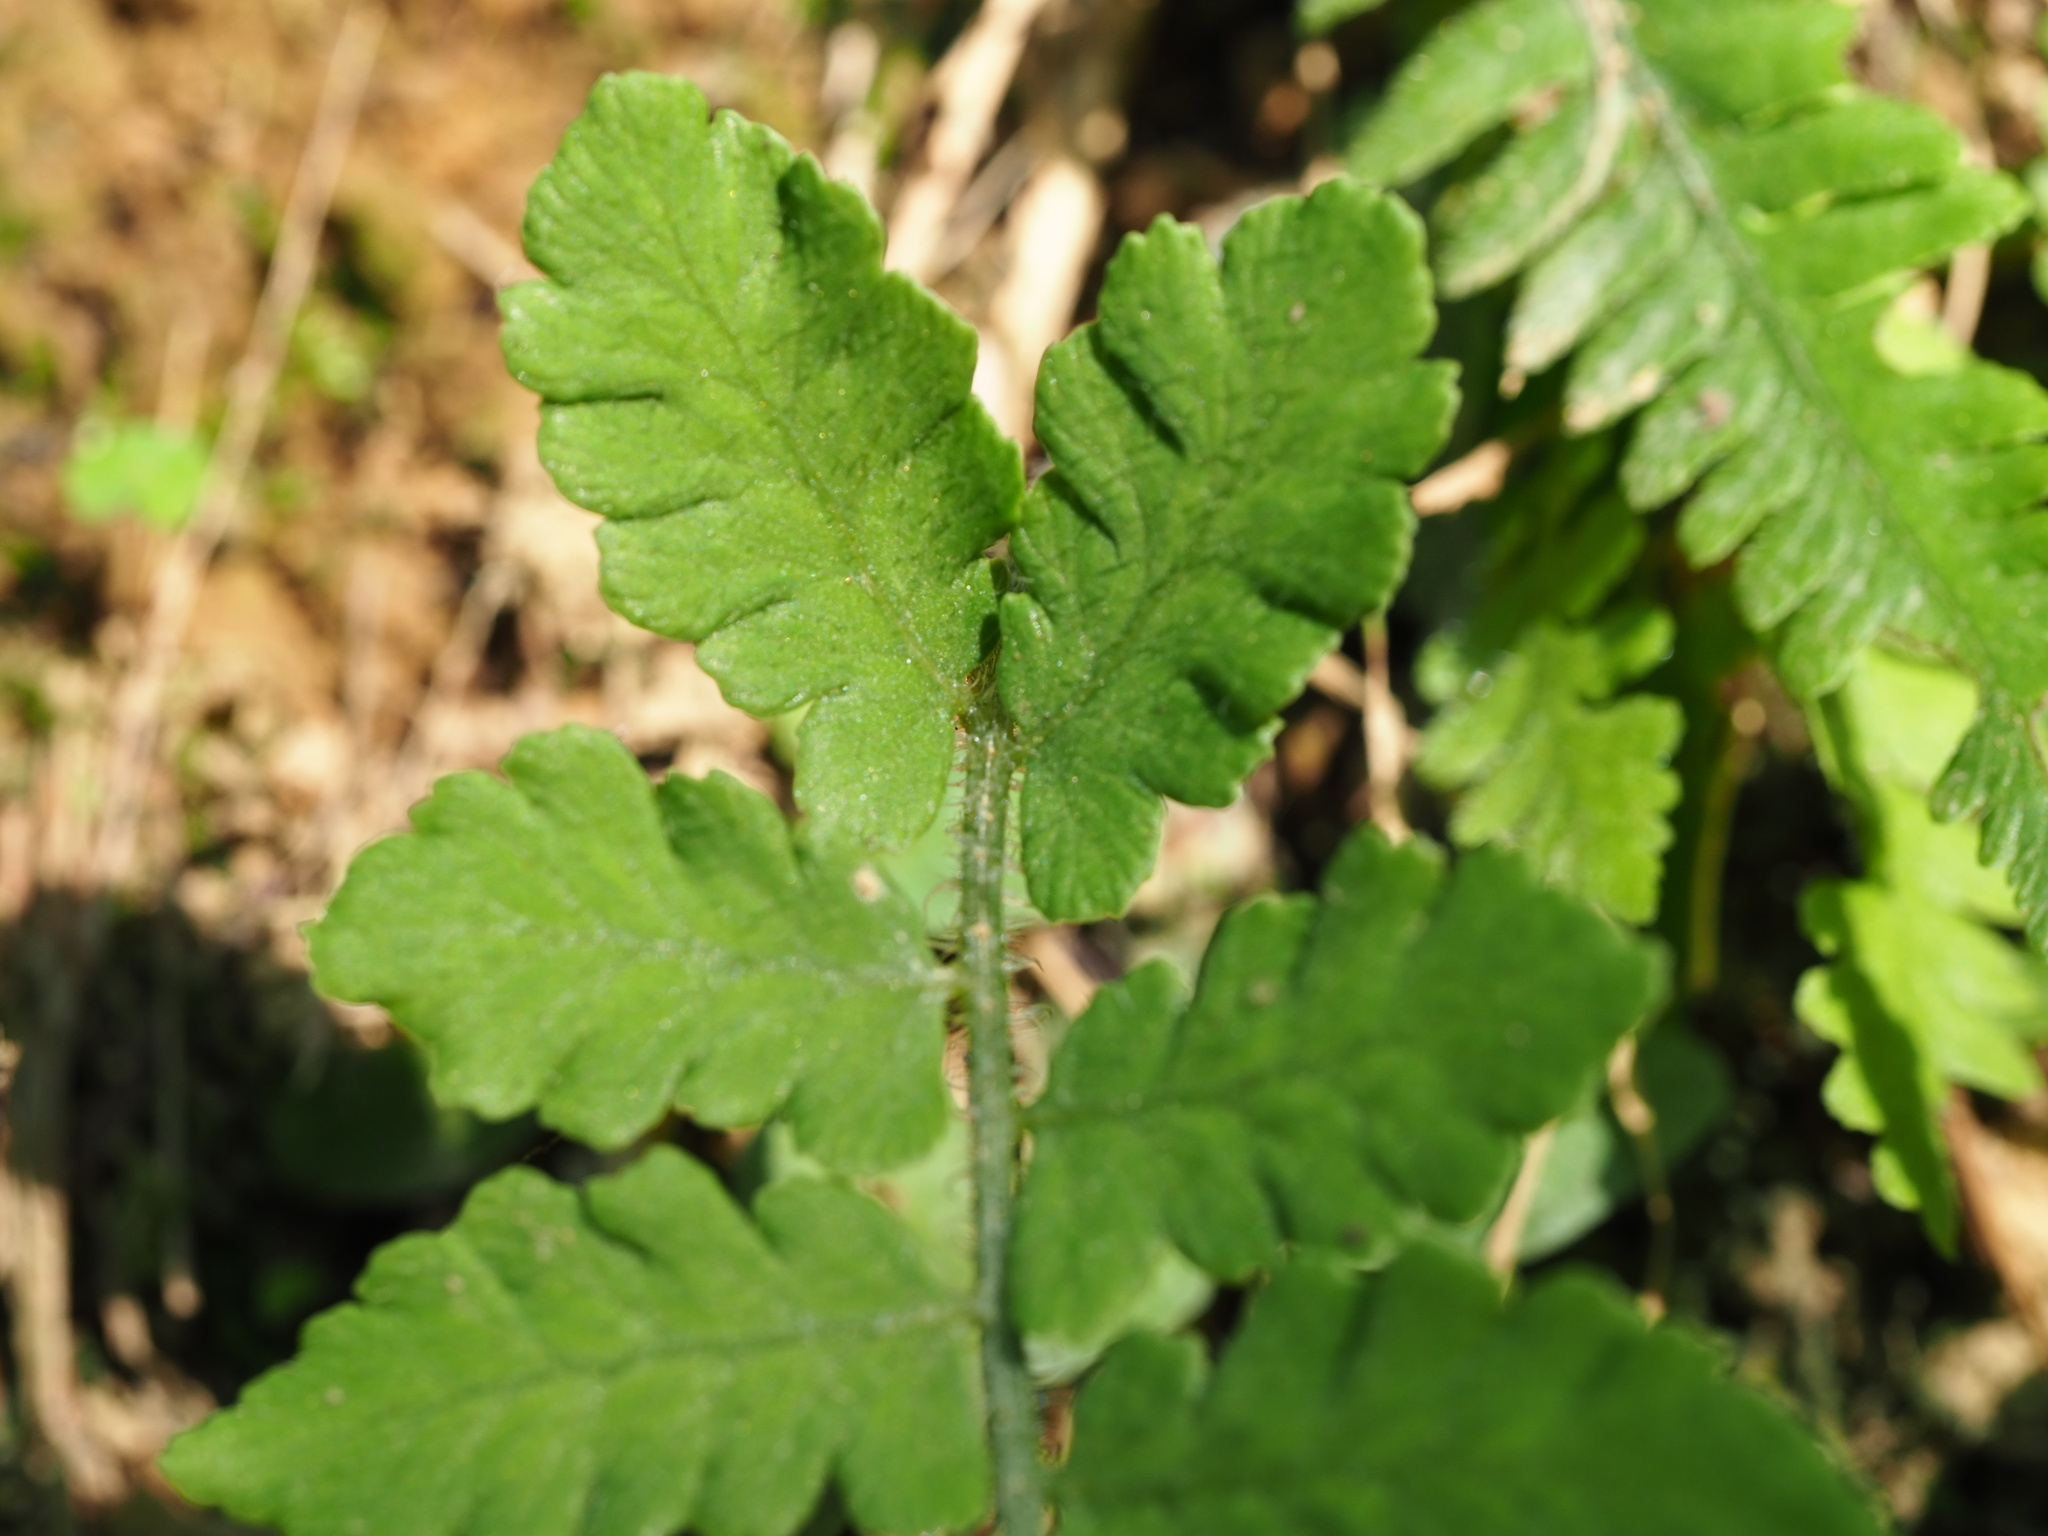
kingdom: Plantae
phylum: Tracheophyta
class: Polypodiopsida
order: Polypodiales
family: Athyriaceae
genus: Deparia
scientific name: Deparia petersenii
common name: Japanese false spleenwort
